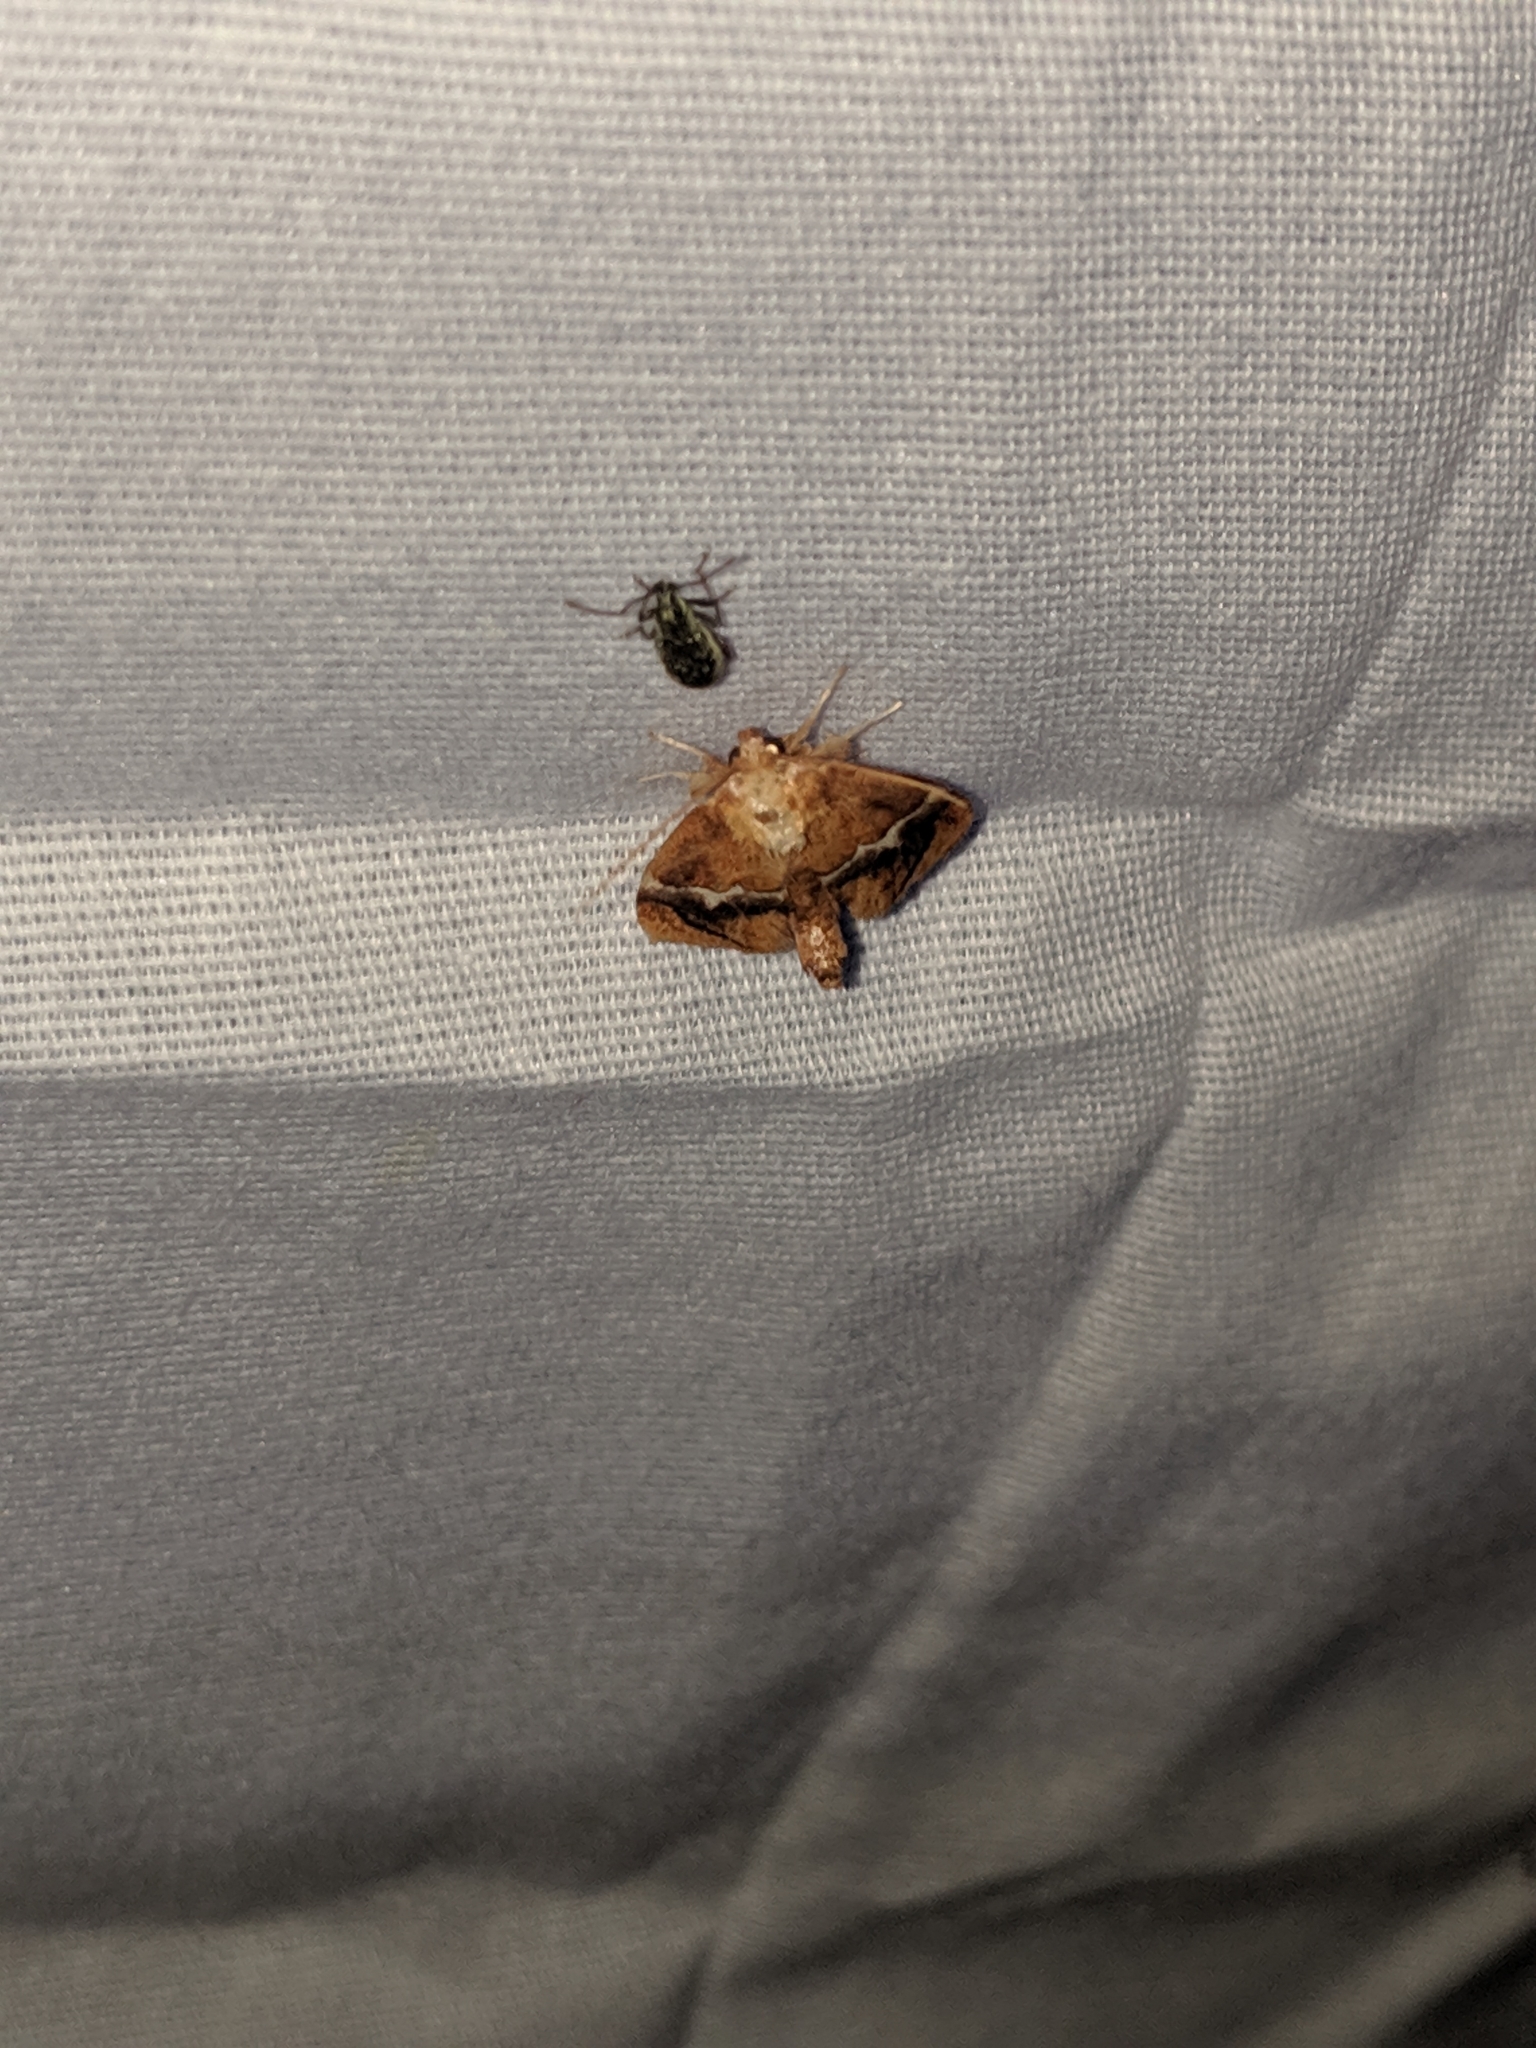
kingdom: Animalia
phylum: Arthropoda
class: Insecta
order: Lepidoptera
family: Limacodidae
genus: Lithacodes
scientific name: Lithacodes fasciola
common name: Yellow-shouldered slug moth
